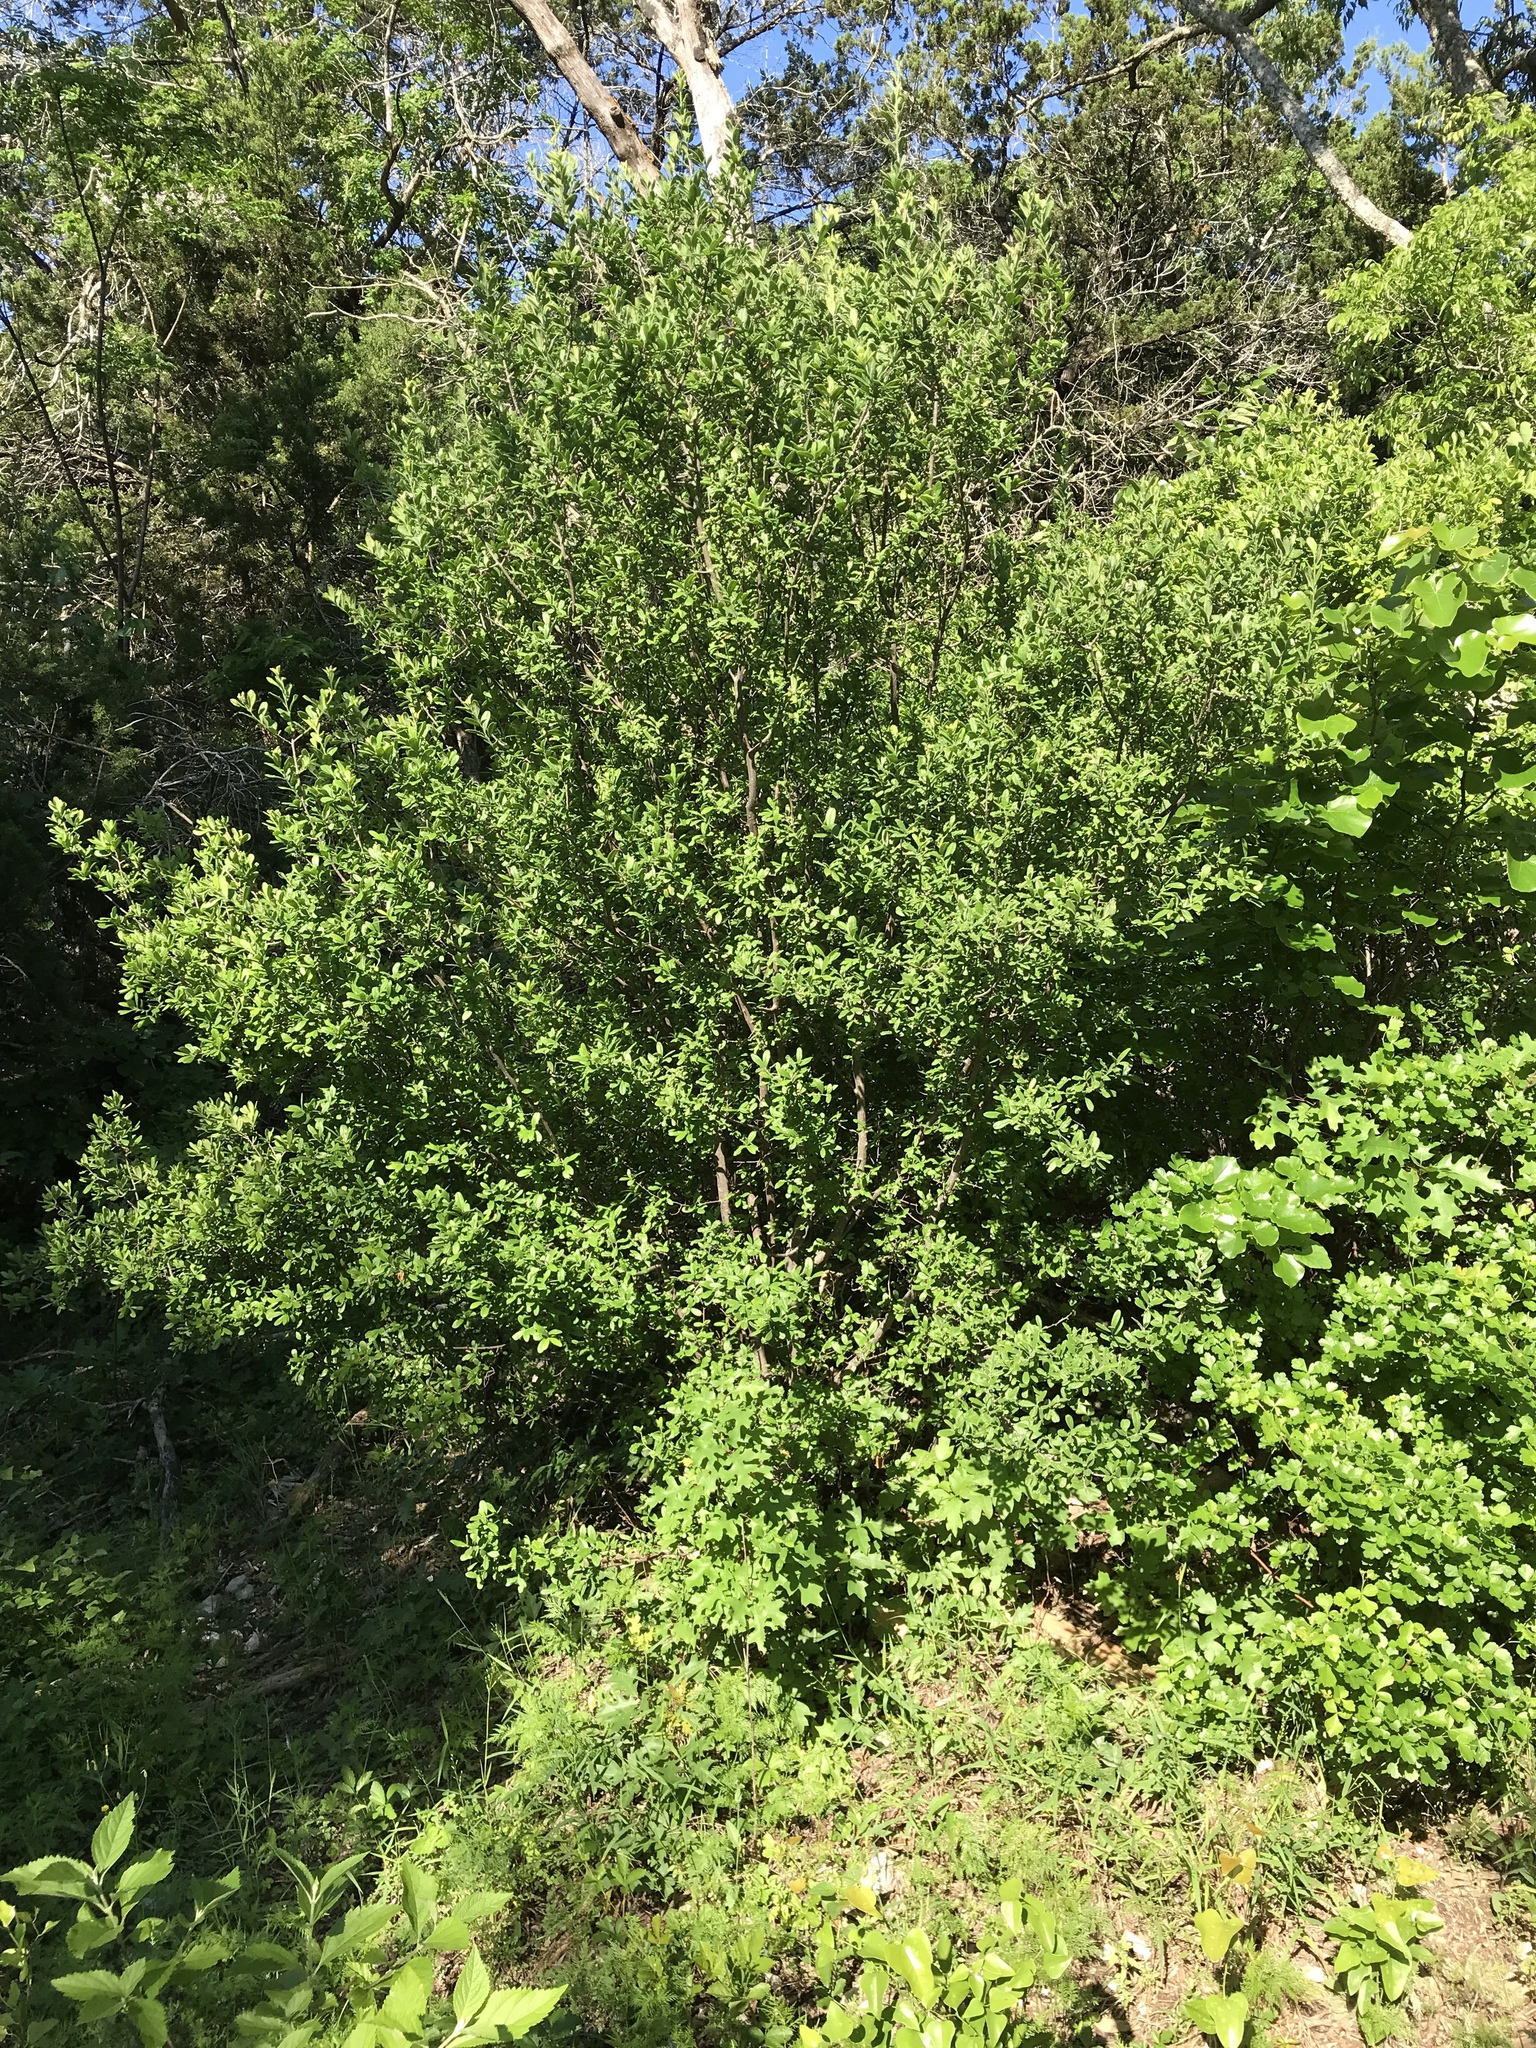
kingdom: Plantae
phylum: Tracheophyta
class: Magnoliopsida
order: Ericales
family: Ebenaceae
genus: Diospyros
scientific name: Diospyros texana
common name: Texas persimmon
